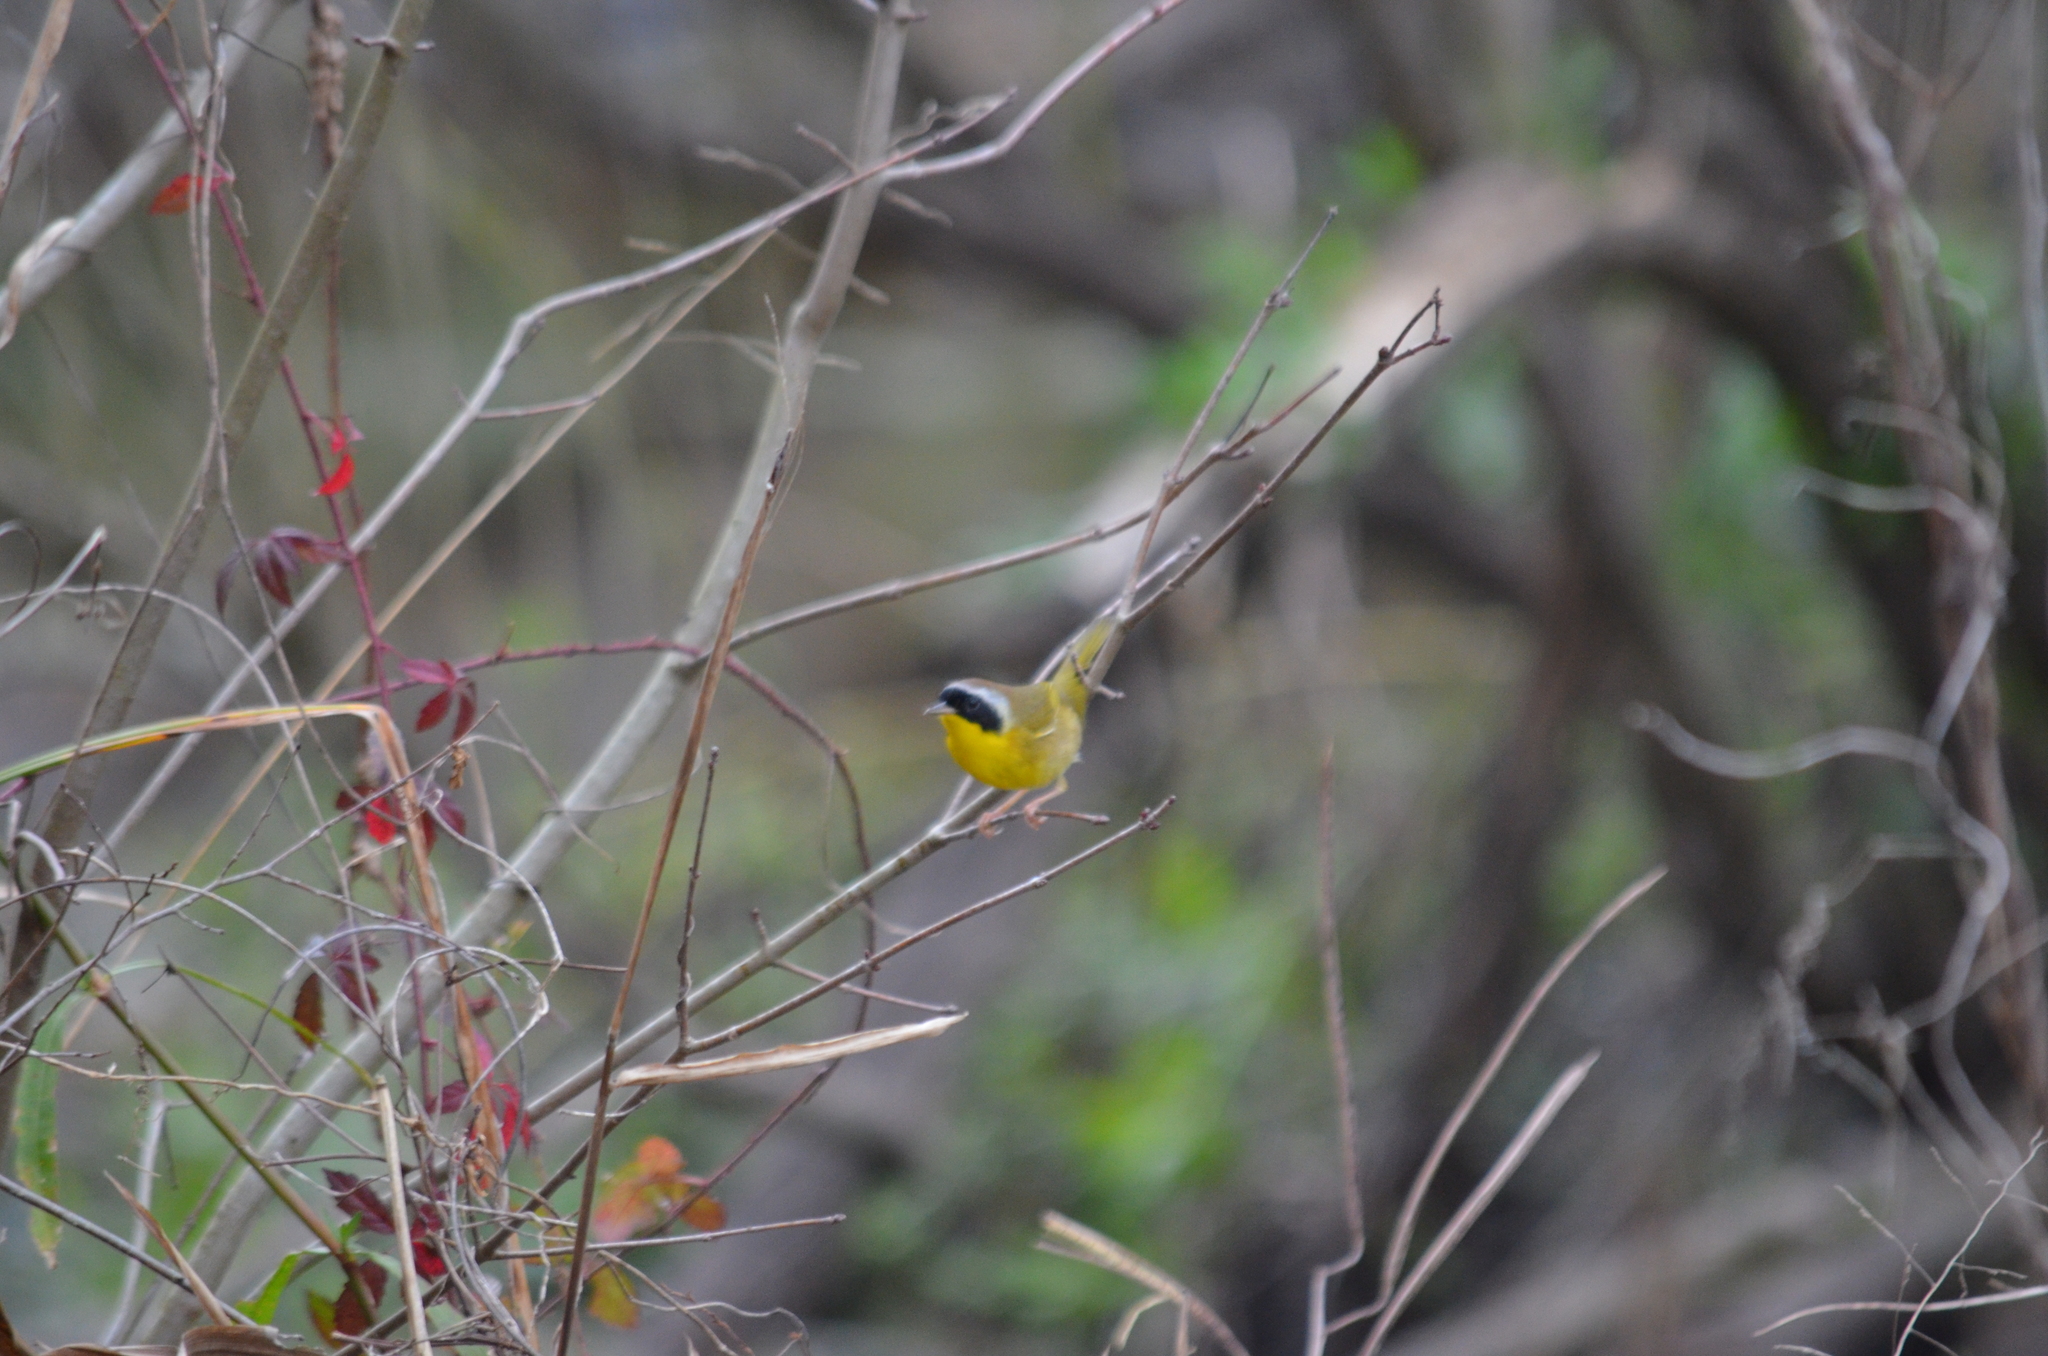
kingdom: Animalia
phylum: Chordata
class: Aves
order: Passeriformes
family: Parulidae
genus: Geothlypis
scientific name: Geothlypis trichas
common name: Common yellowthroat
